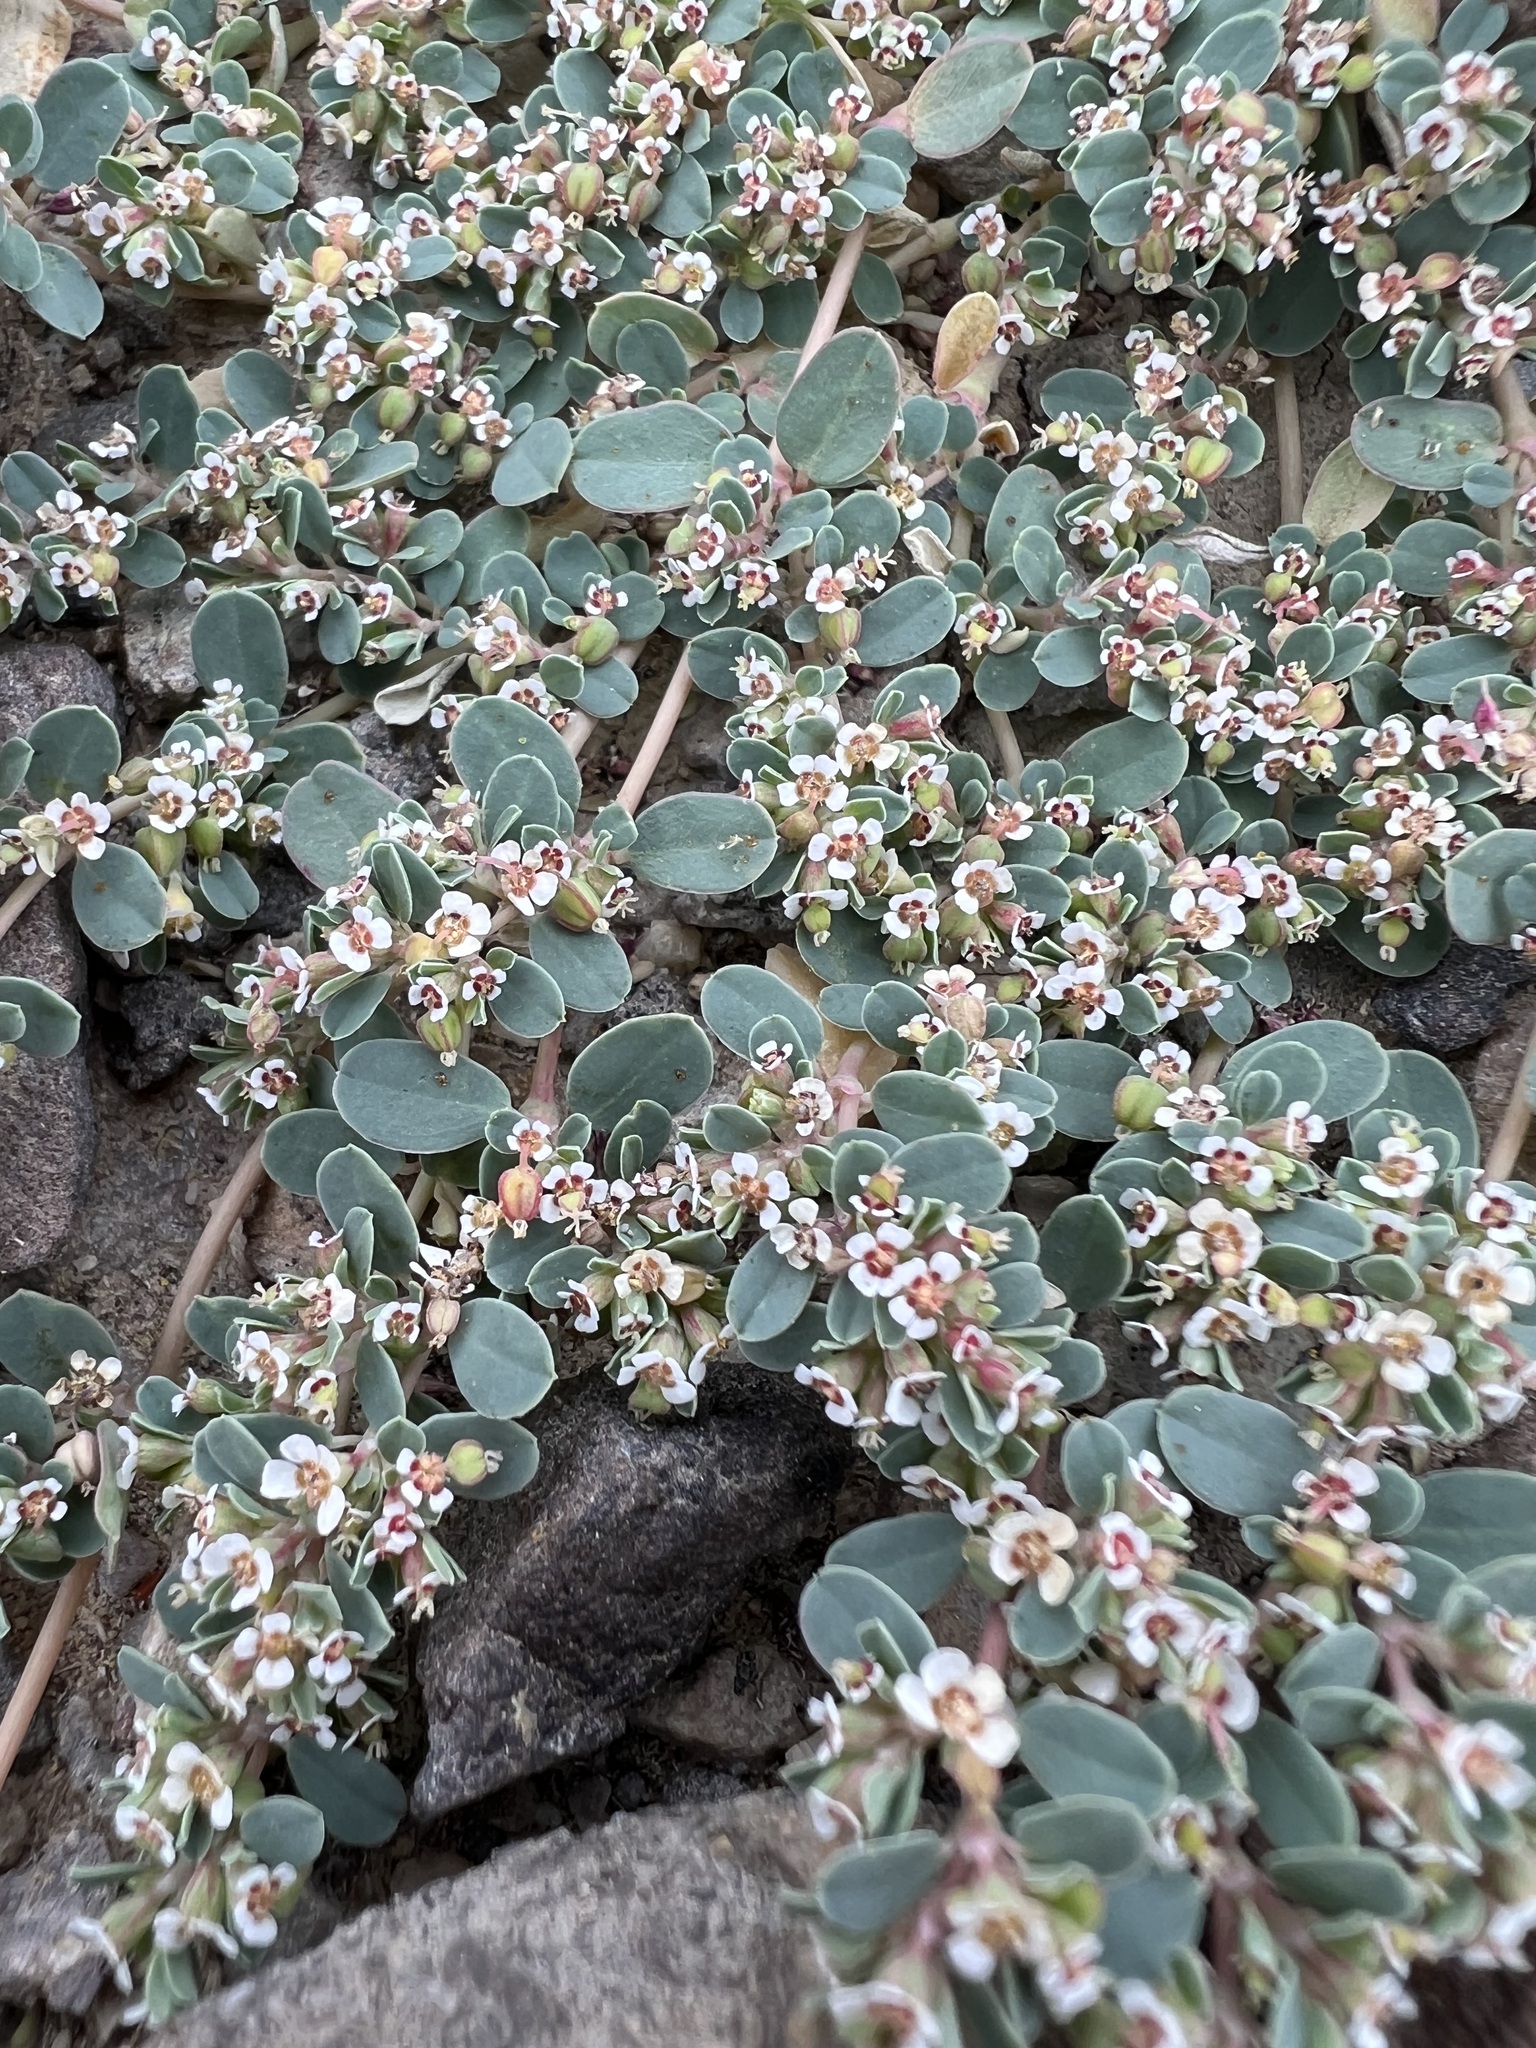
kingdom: Plantae
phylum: Tracheophyta
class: Magnoliopsida
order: Malpighiales
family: Euphorbiaceae
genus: Euphorbia
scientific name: Euphorbia albomarginata
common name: Whitemargin sandmat
